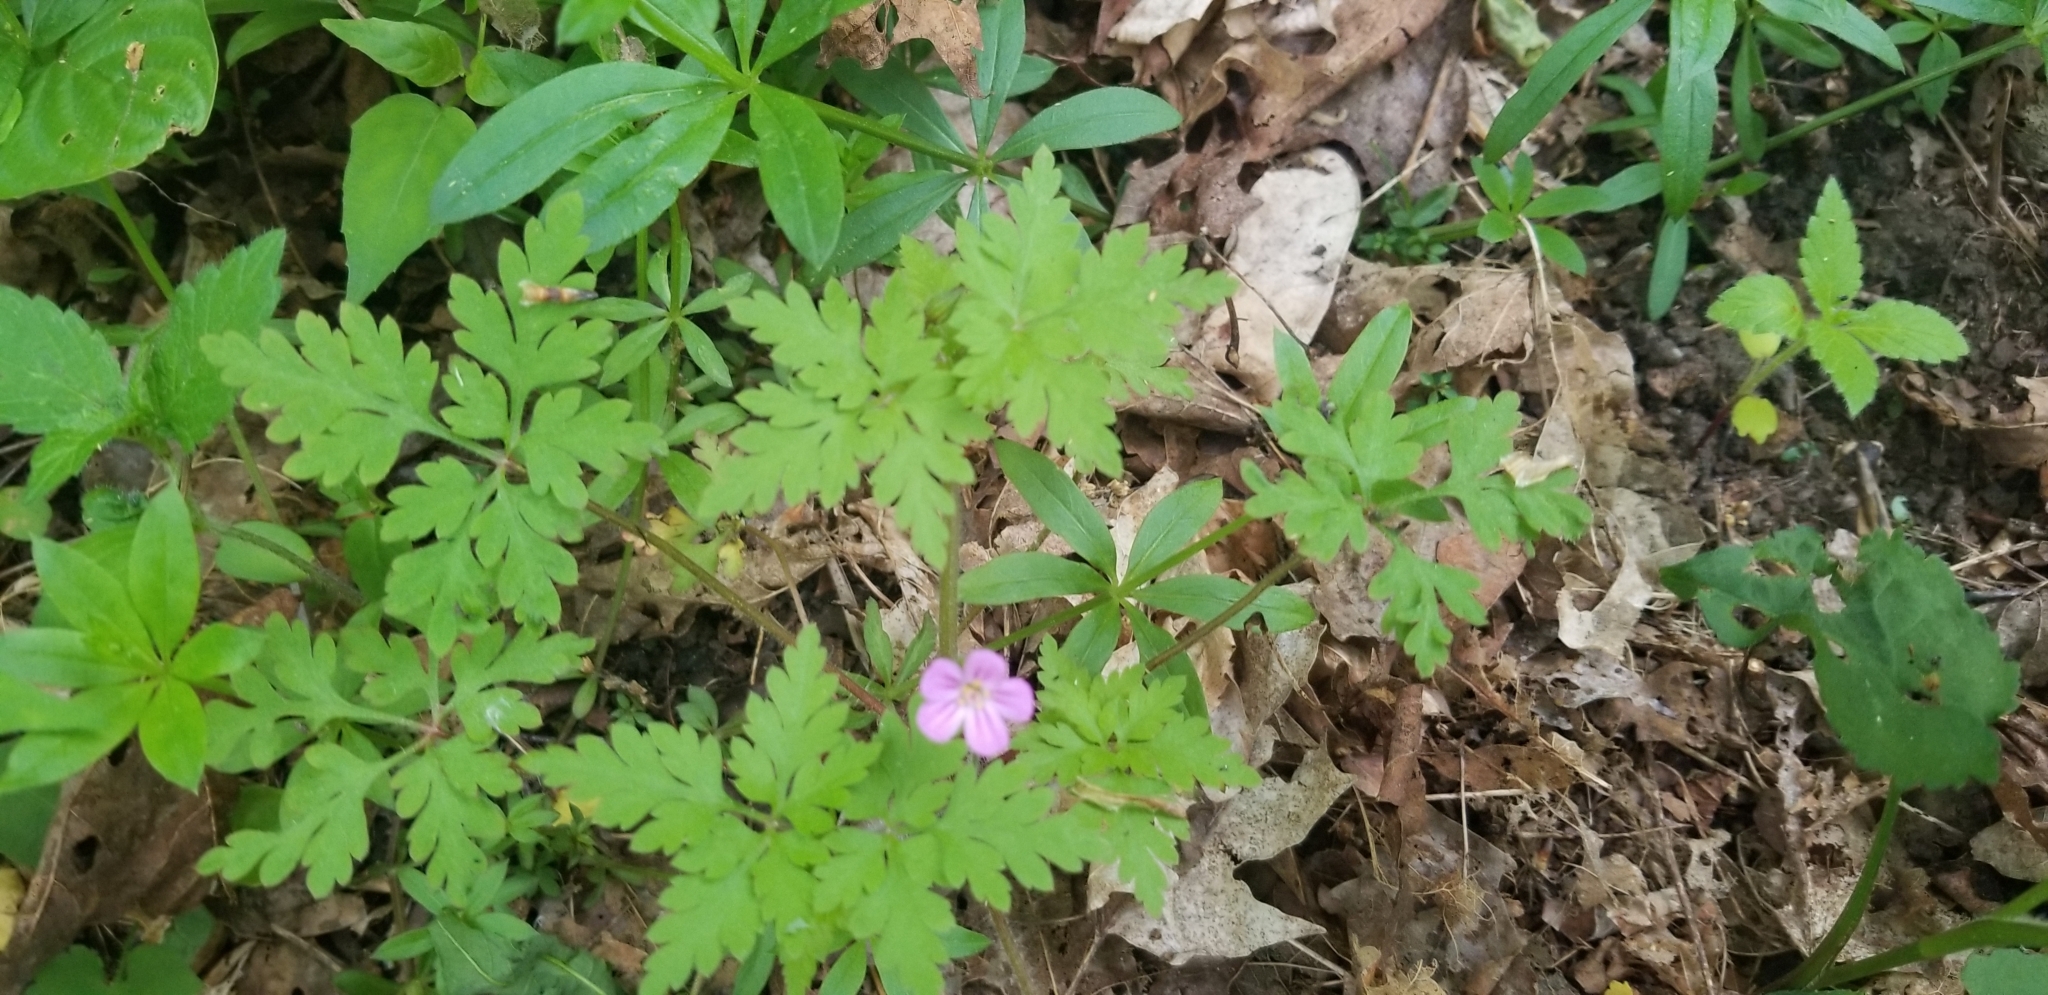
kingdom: Plantae
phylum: Tracheophyta
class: Magnoliopsida
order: Geraniales
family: Geraniaceae
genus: Geranium
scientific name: Geranium robertianum
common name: Herb-robert
